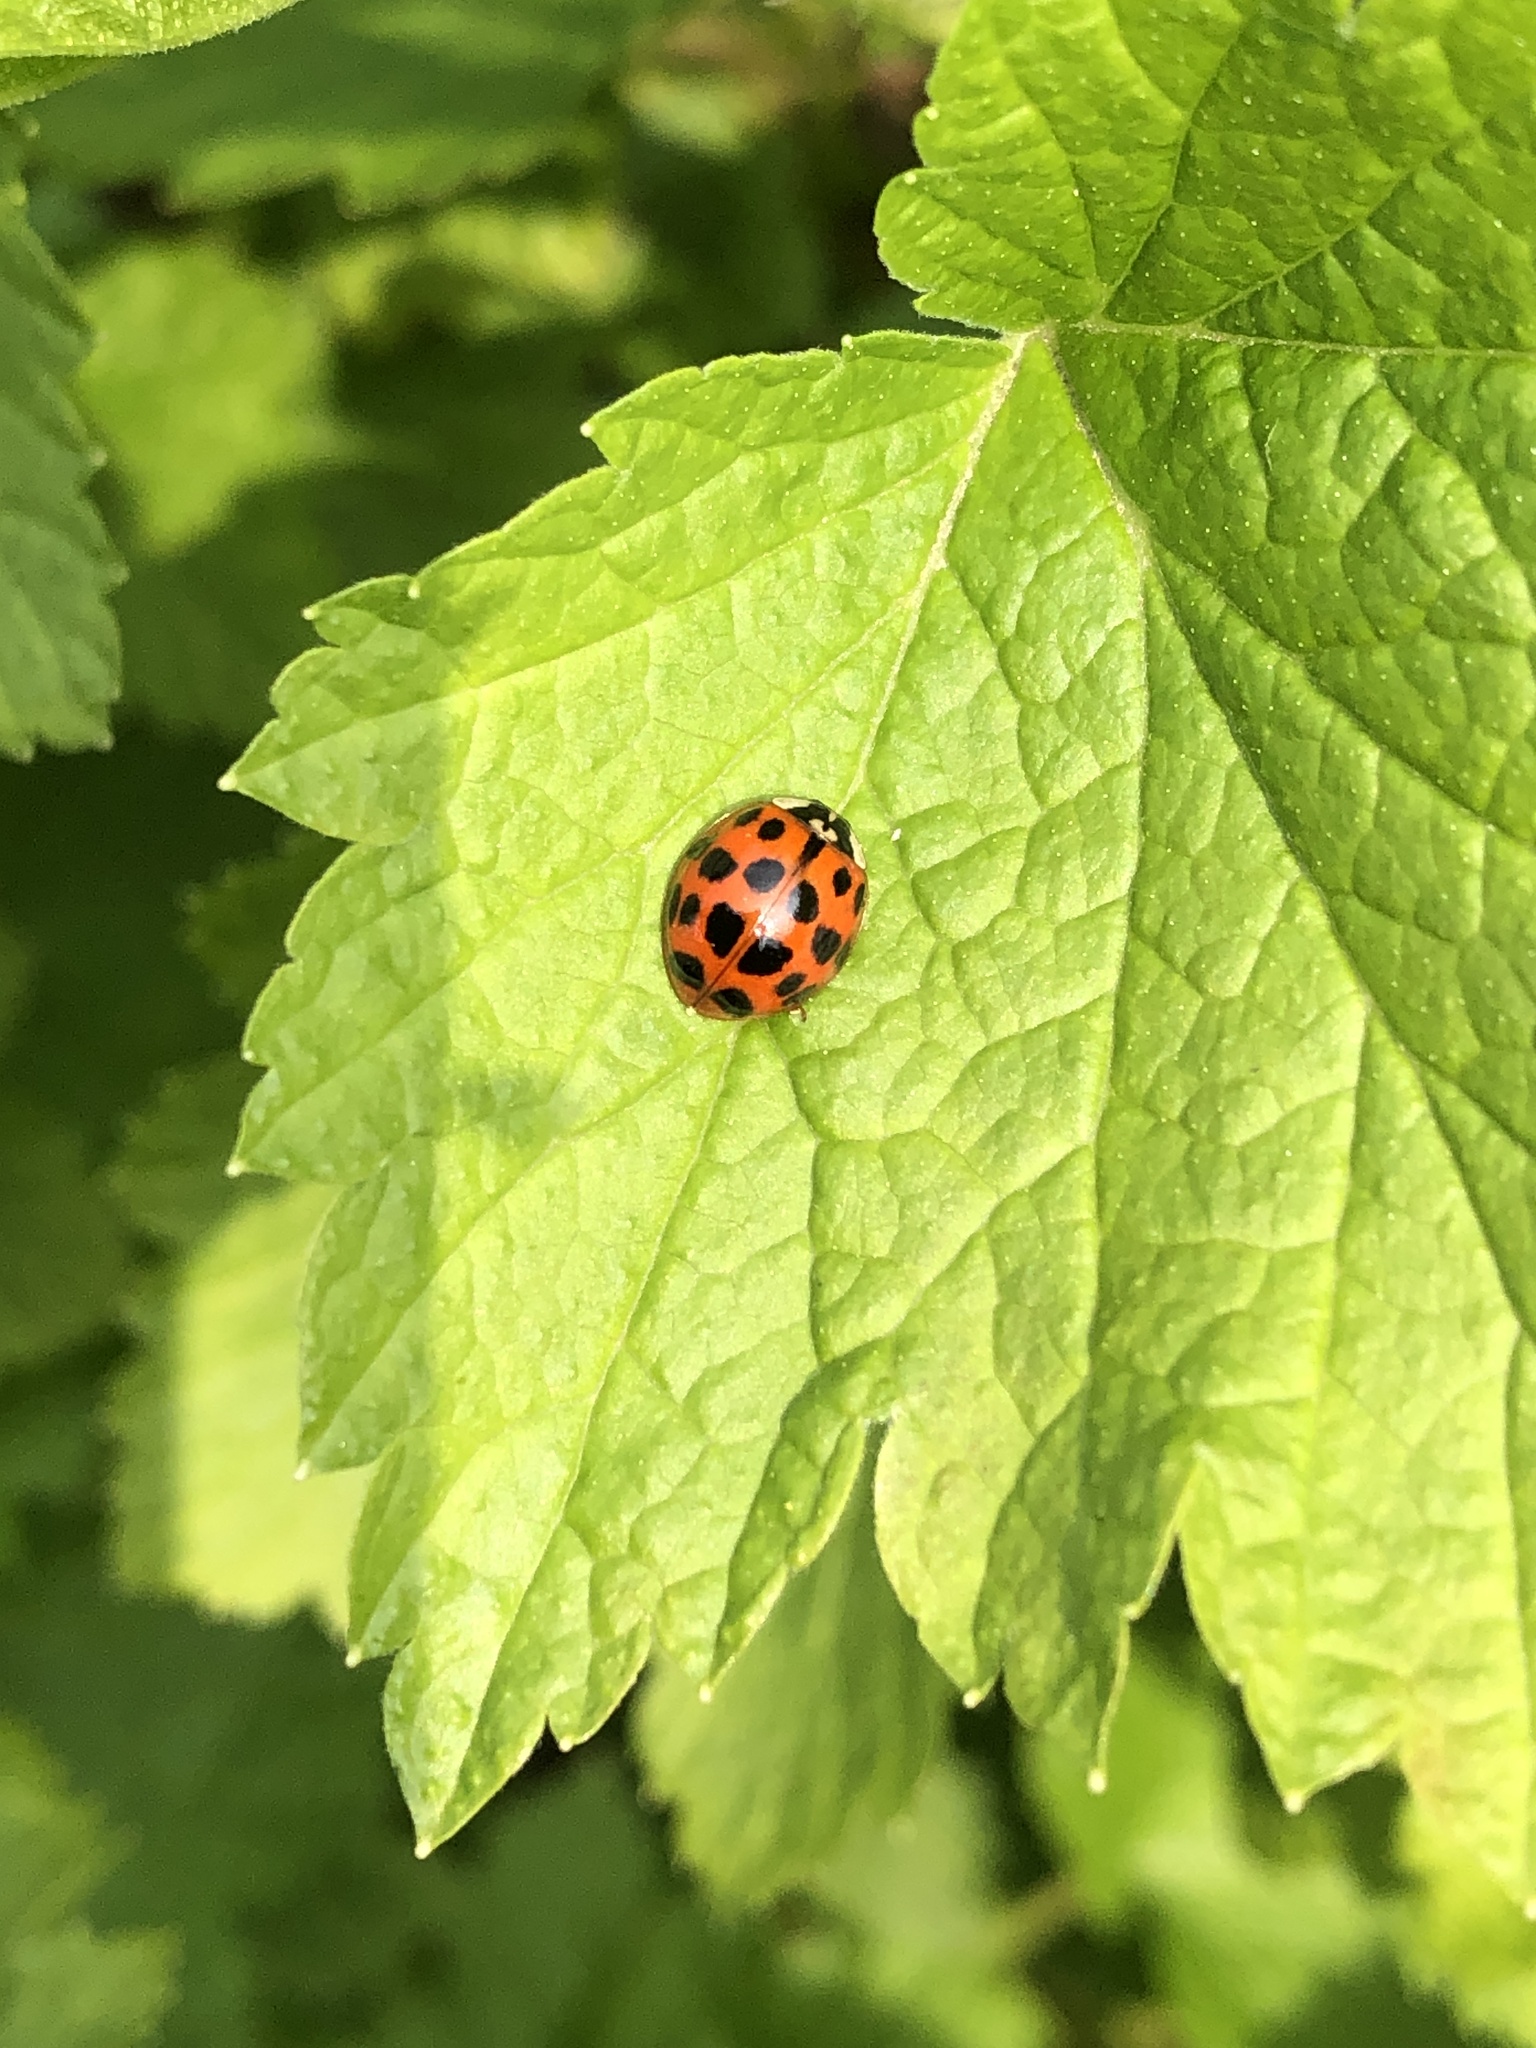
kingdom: Animalia
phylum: Arthropoda
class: Insecta
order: Coleoptera
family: Coccinellidae
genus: Harmonia
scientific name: Harmonia axyridis
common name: Harlequin ladybird
